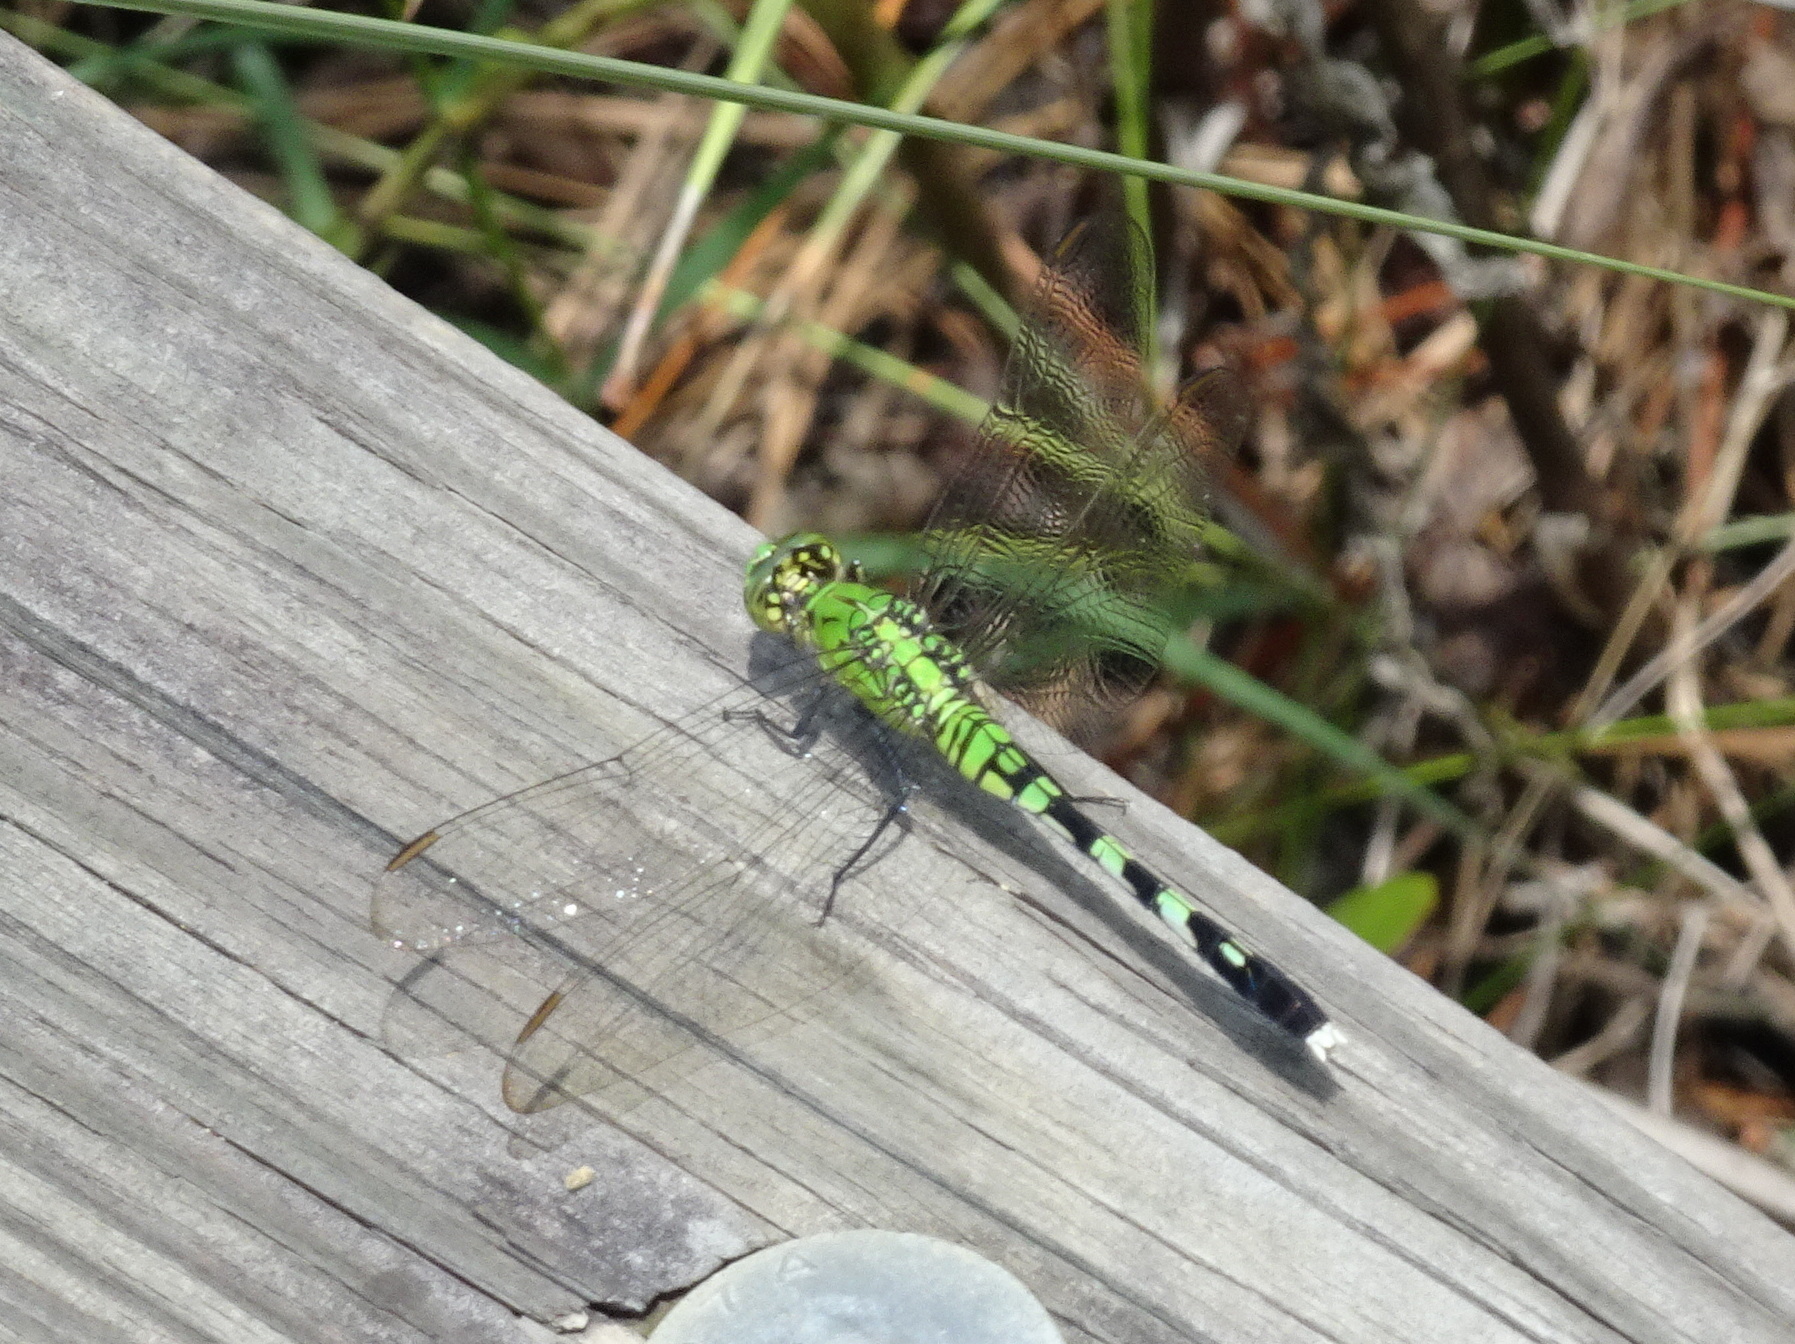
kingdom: Animalia
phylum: Arthropoda
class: Insecta
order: Odonata
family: Libellulidae
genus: Erythemis
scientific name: Erythemis simplicicollis
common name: Eastern pondhawk
